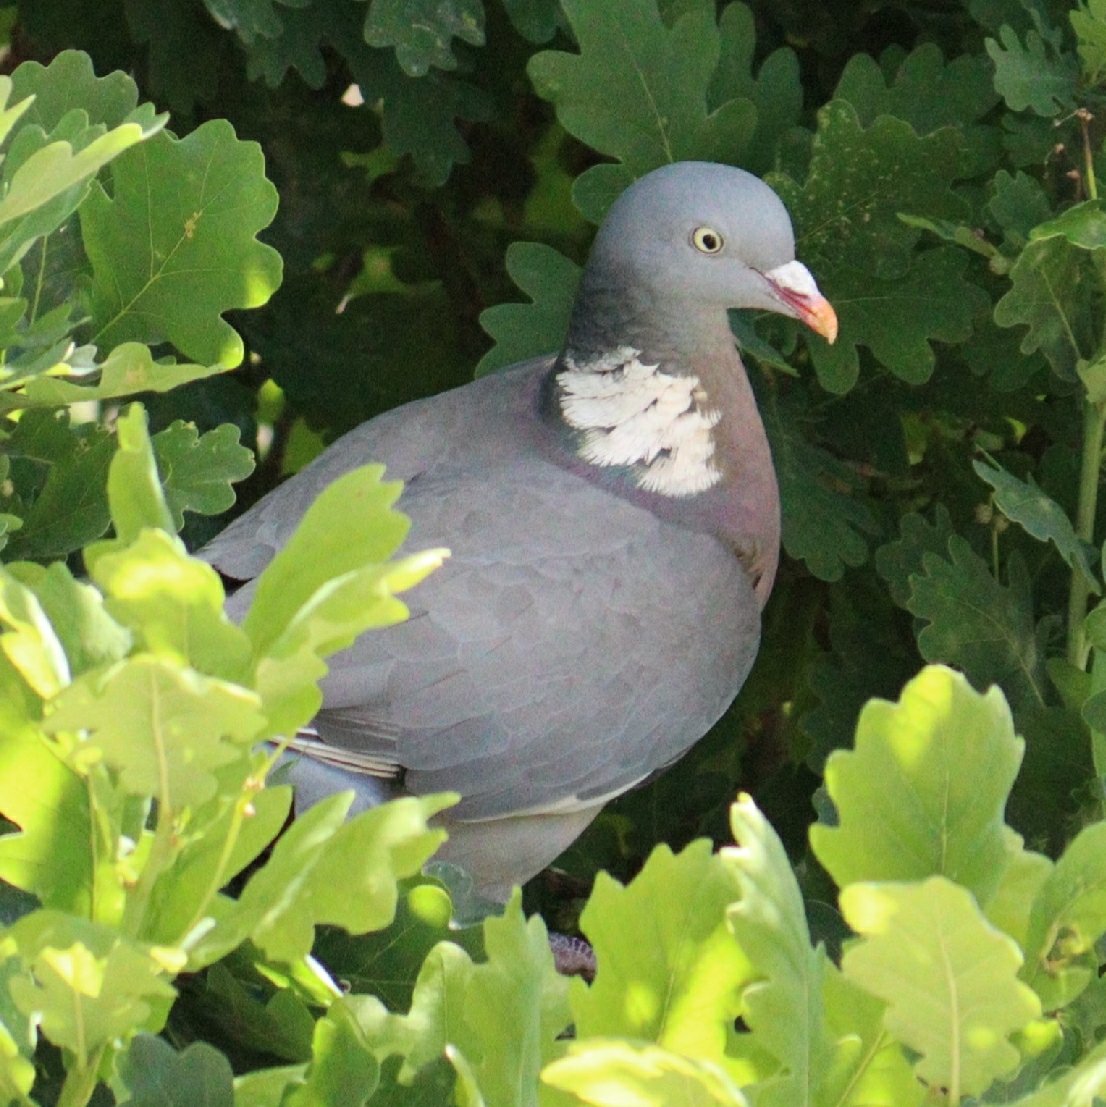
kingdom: Animalia
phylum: Chordata
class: Aves
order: Columbiformes
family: Columbidae
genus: Columba
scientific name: Columba palumbus
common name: Common wood pigeon
